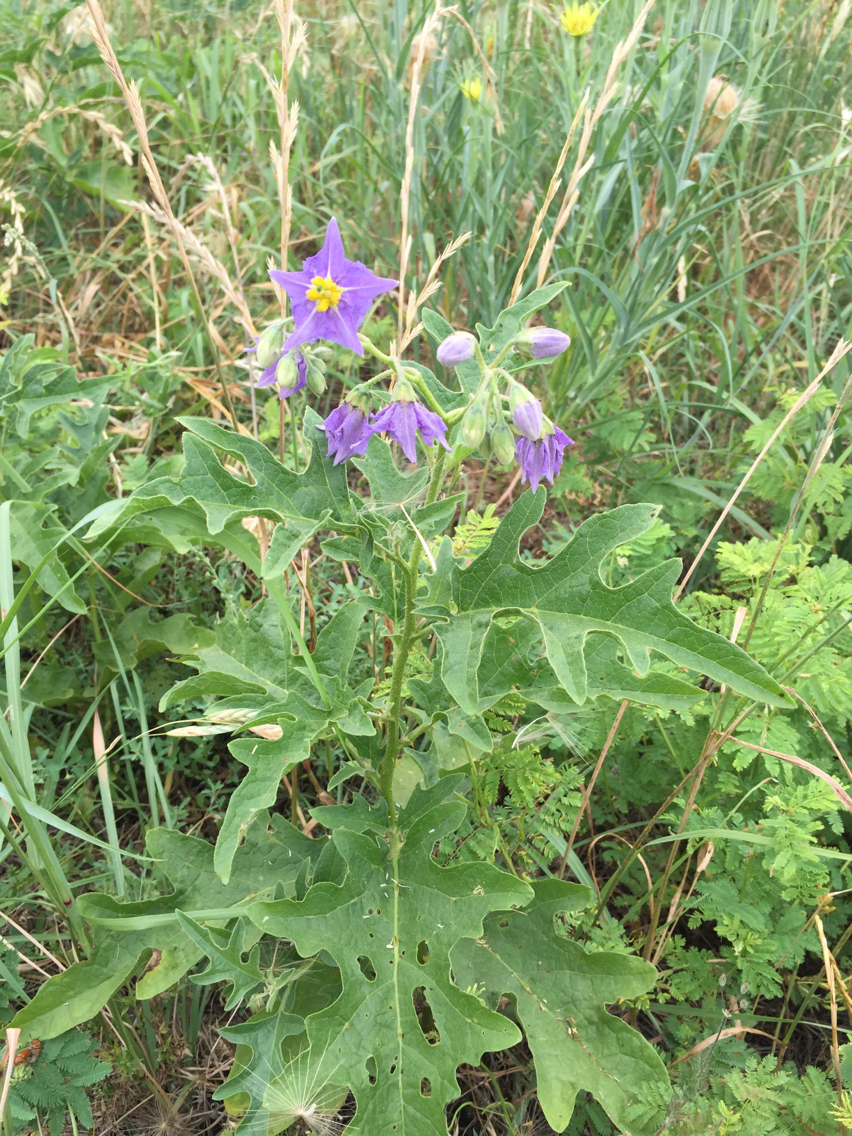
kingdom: Plantae
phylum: Tracheophyta
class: Magnoliopsida
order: Solanales
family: Solanaceae
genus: Solanum
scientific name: Solanum dimidiatum
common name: Carolina horse-nettle
